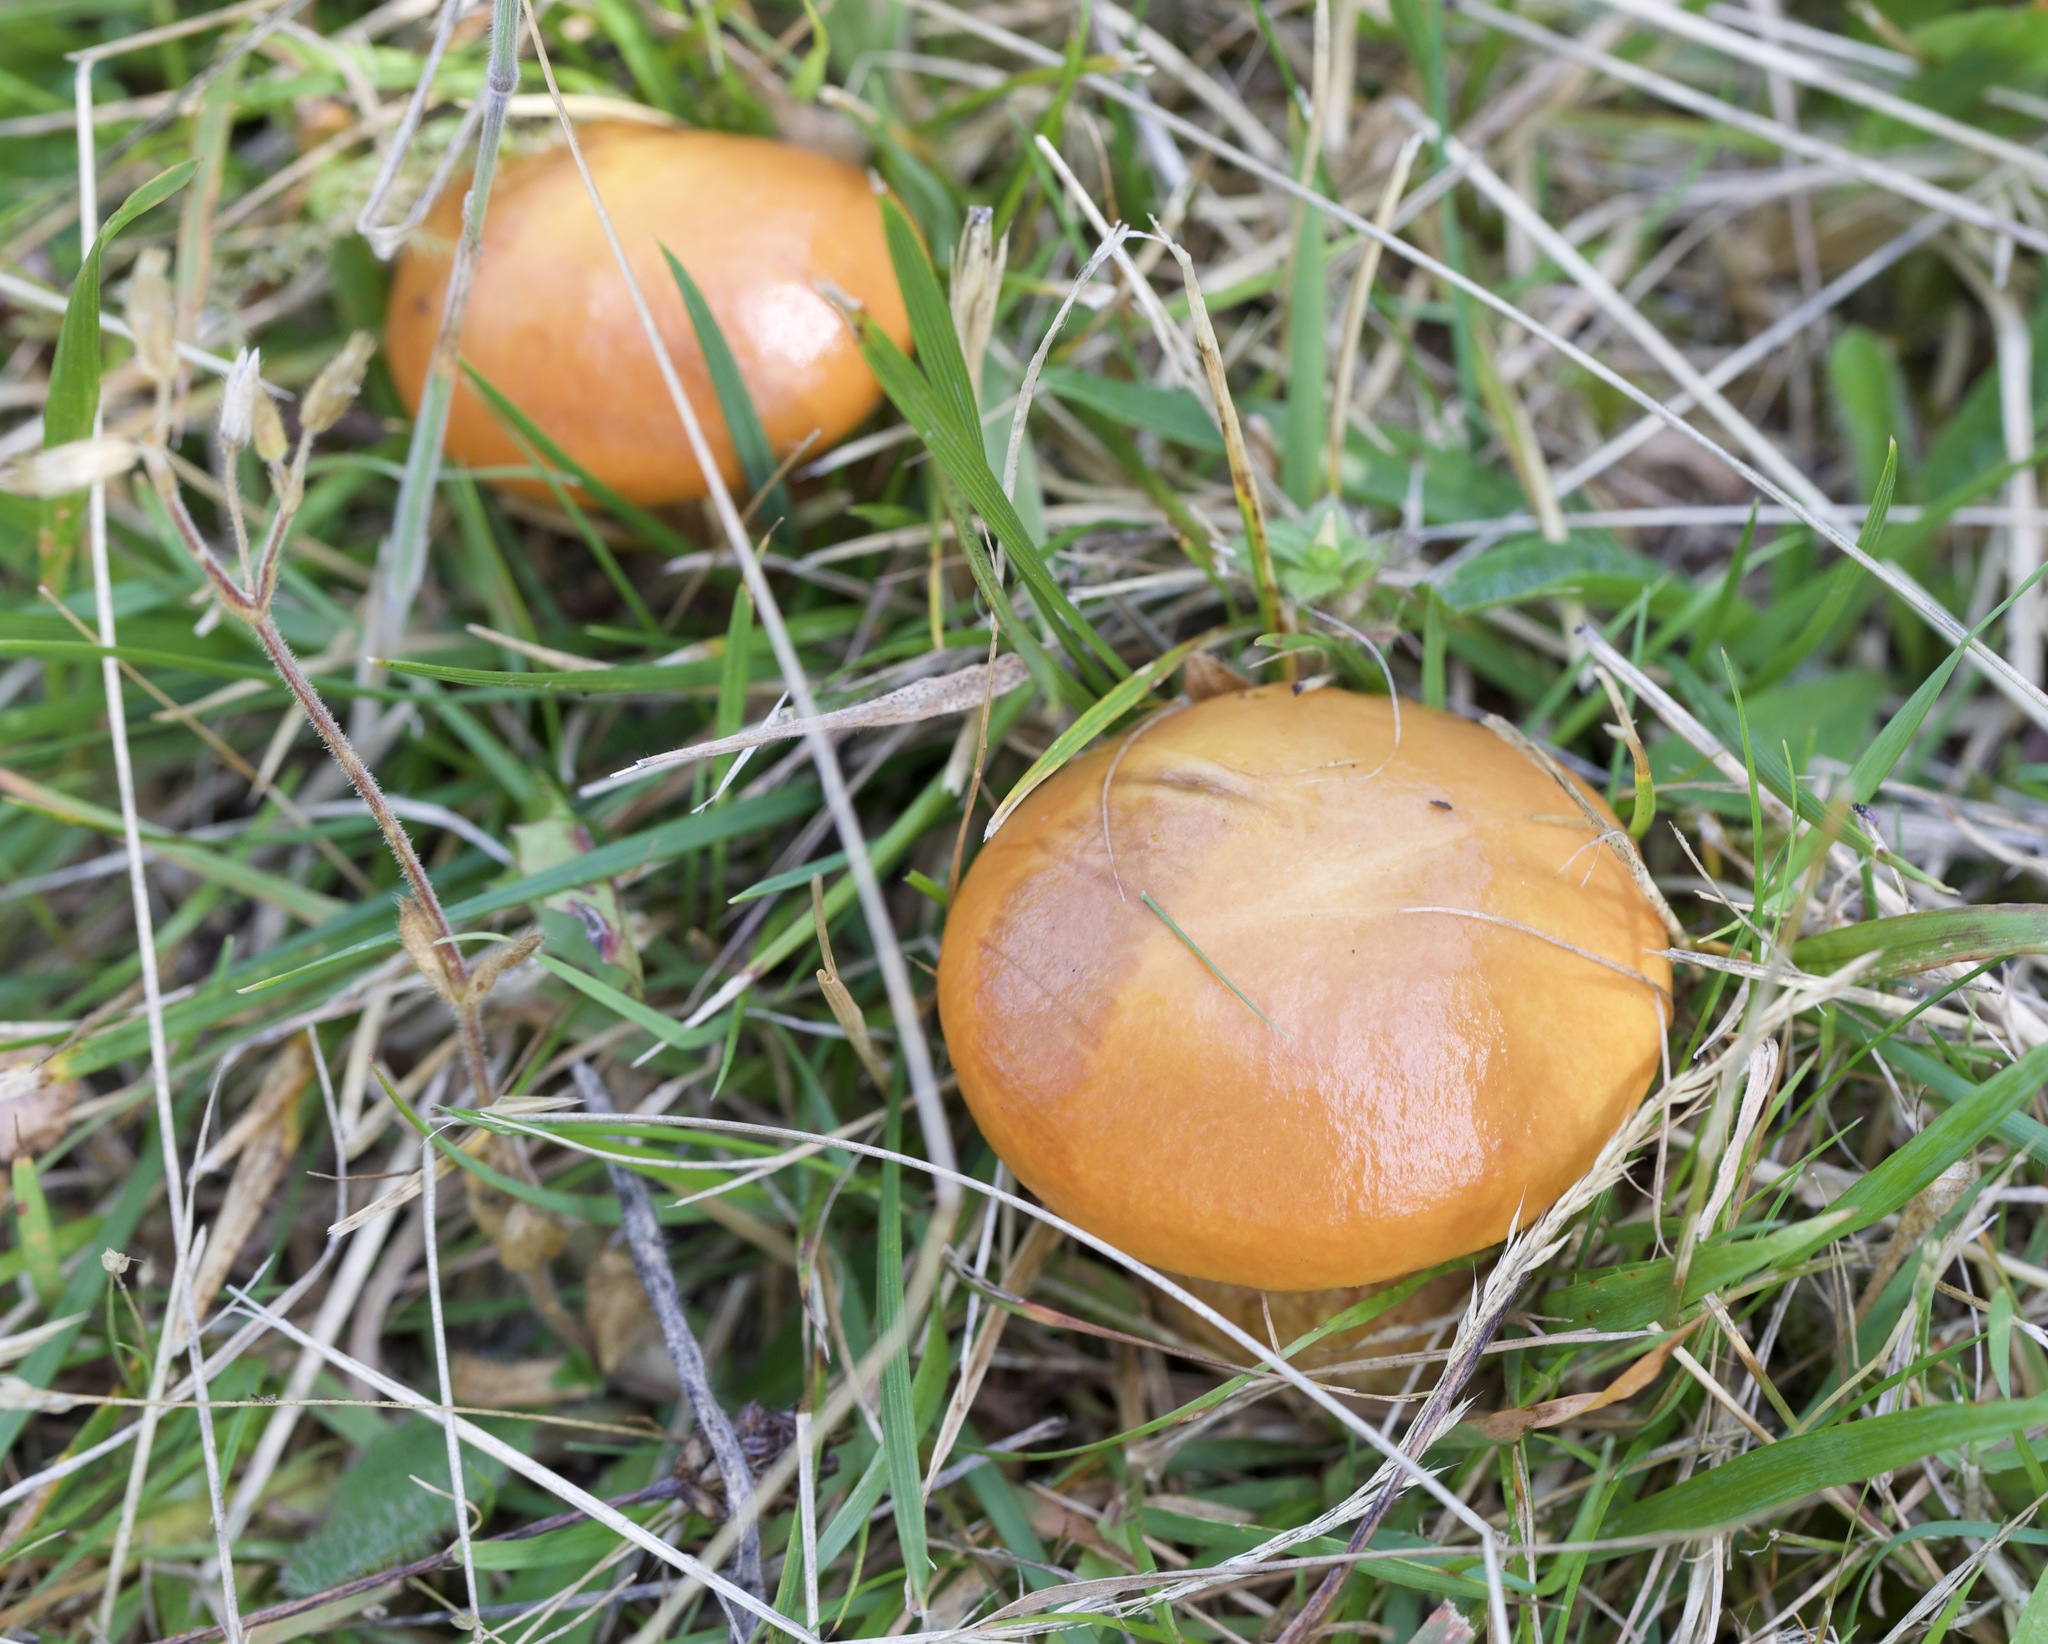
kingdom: Fungi
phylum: Basidiomycota
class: Agaricomycetes
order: Boletales
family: Suillaceae
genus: Suillus
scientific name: Suillus grevillei
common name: Larch bolete
